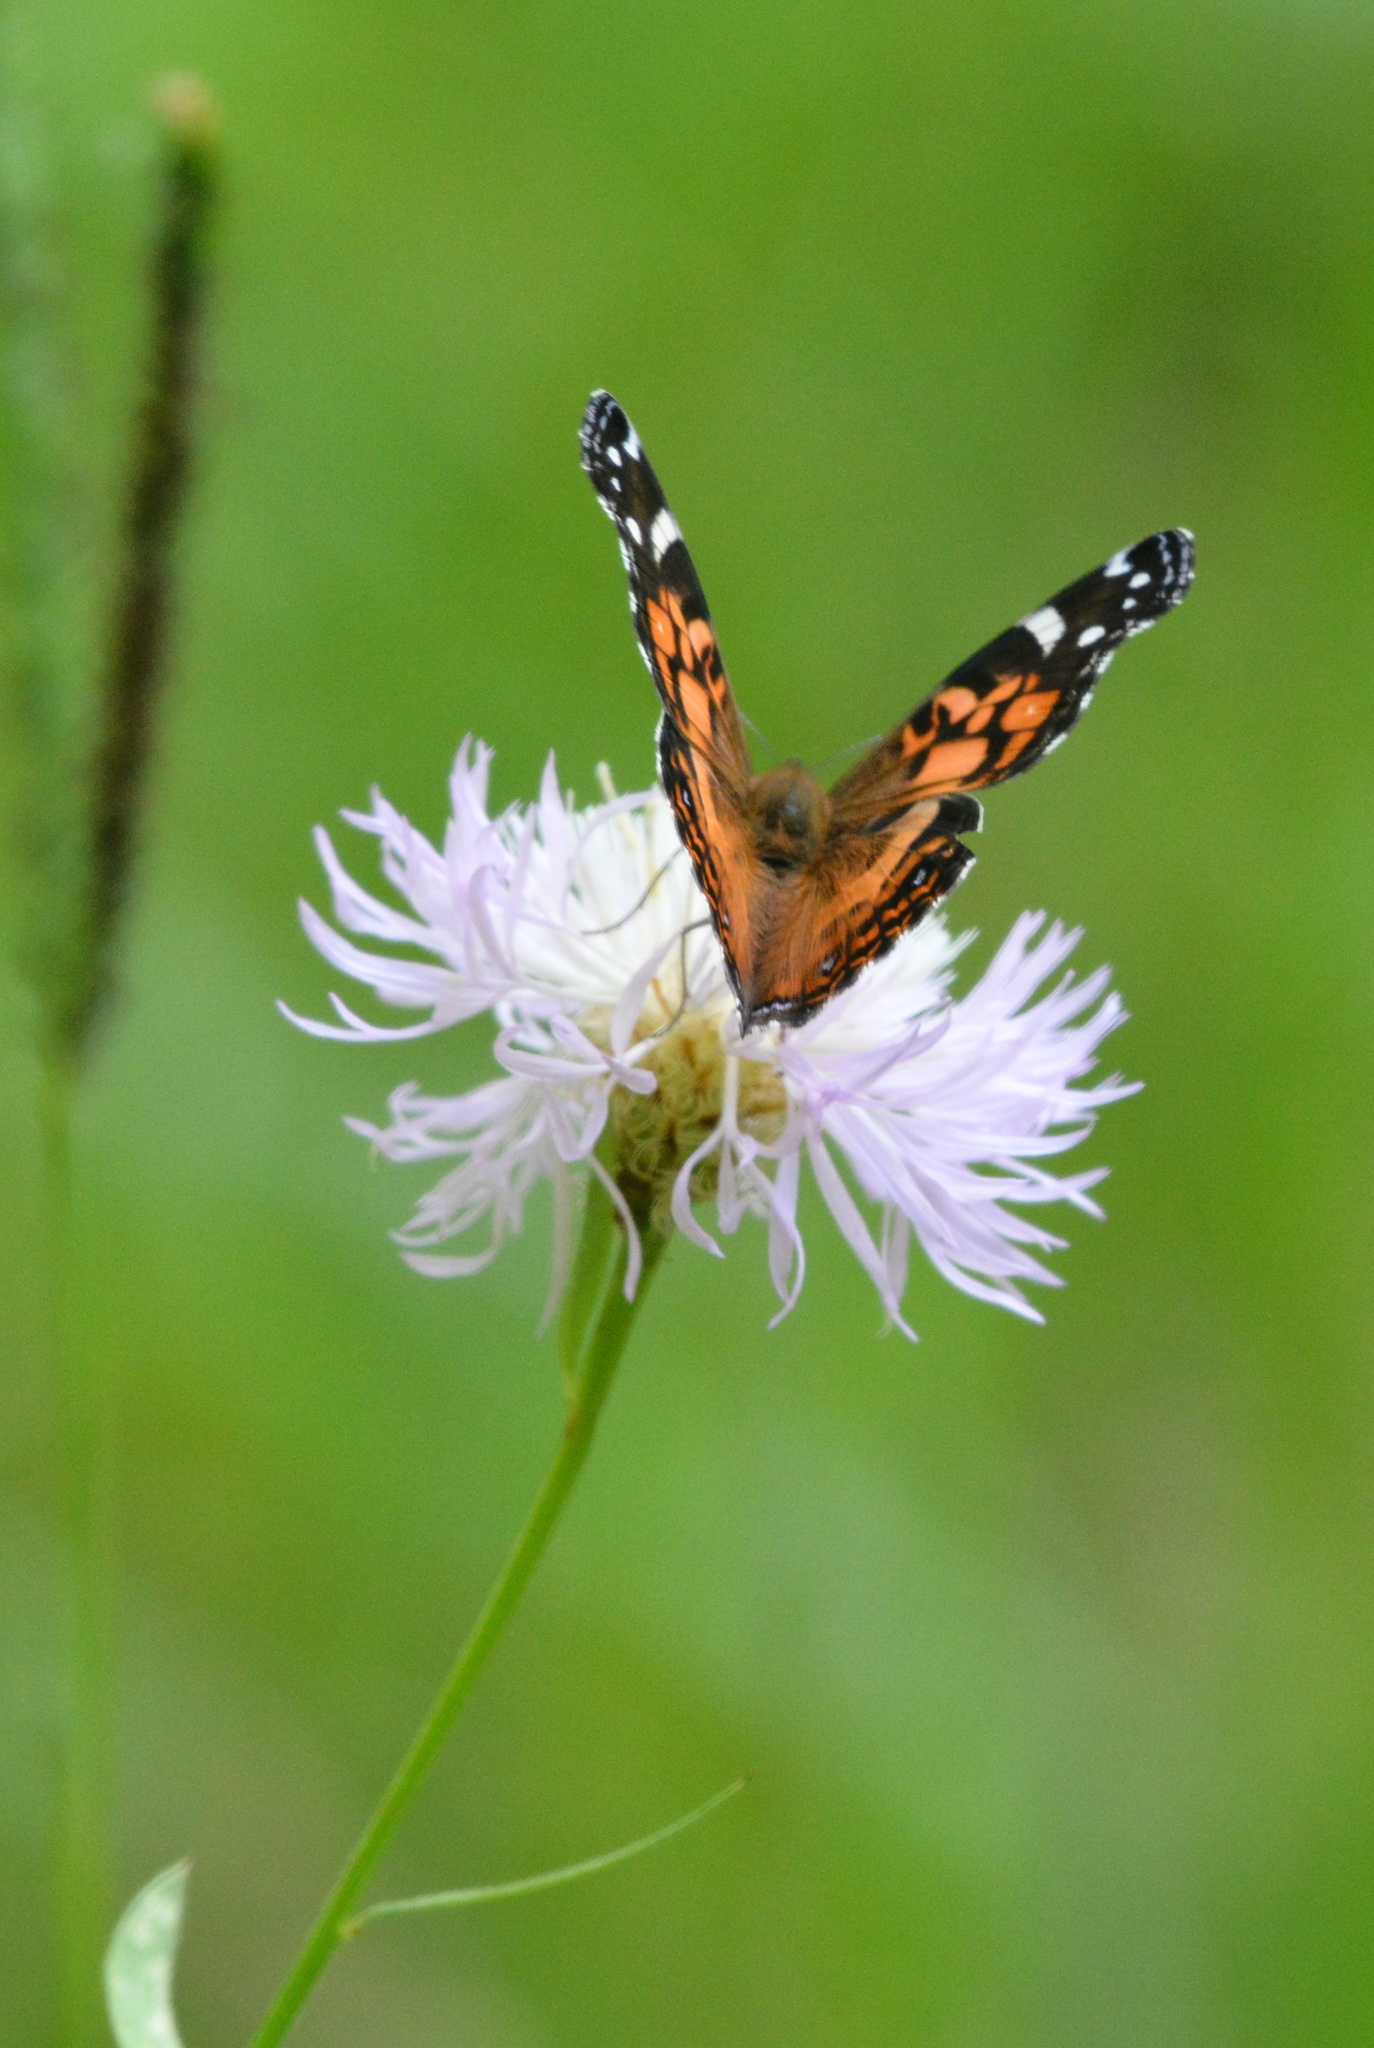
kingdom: Animalia
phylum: Arthropoda
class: Insecta
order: Lepidoptera
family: Nymphalidae
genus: Vanessa
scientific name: Vanessa virginiensis
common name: American lady
